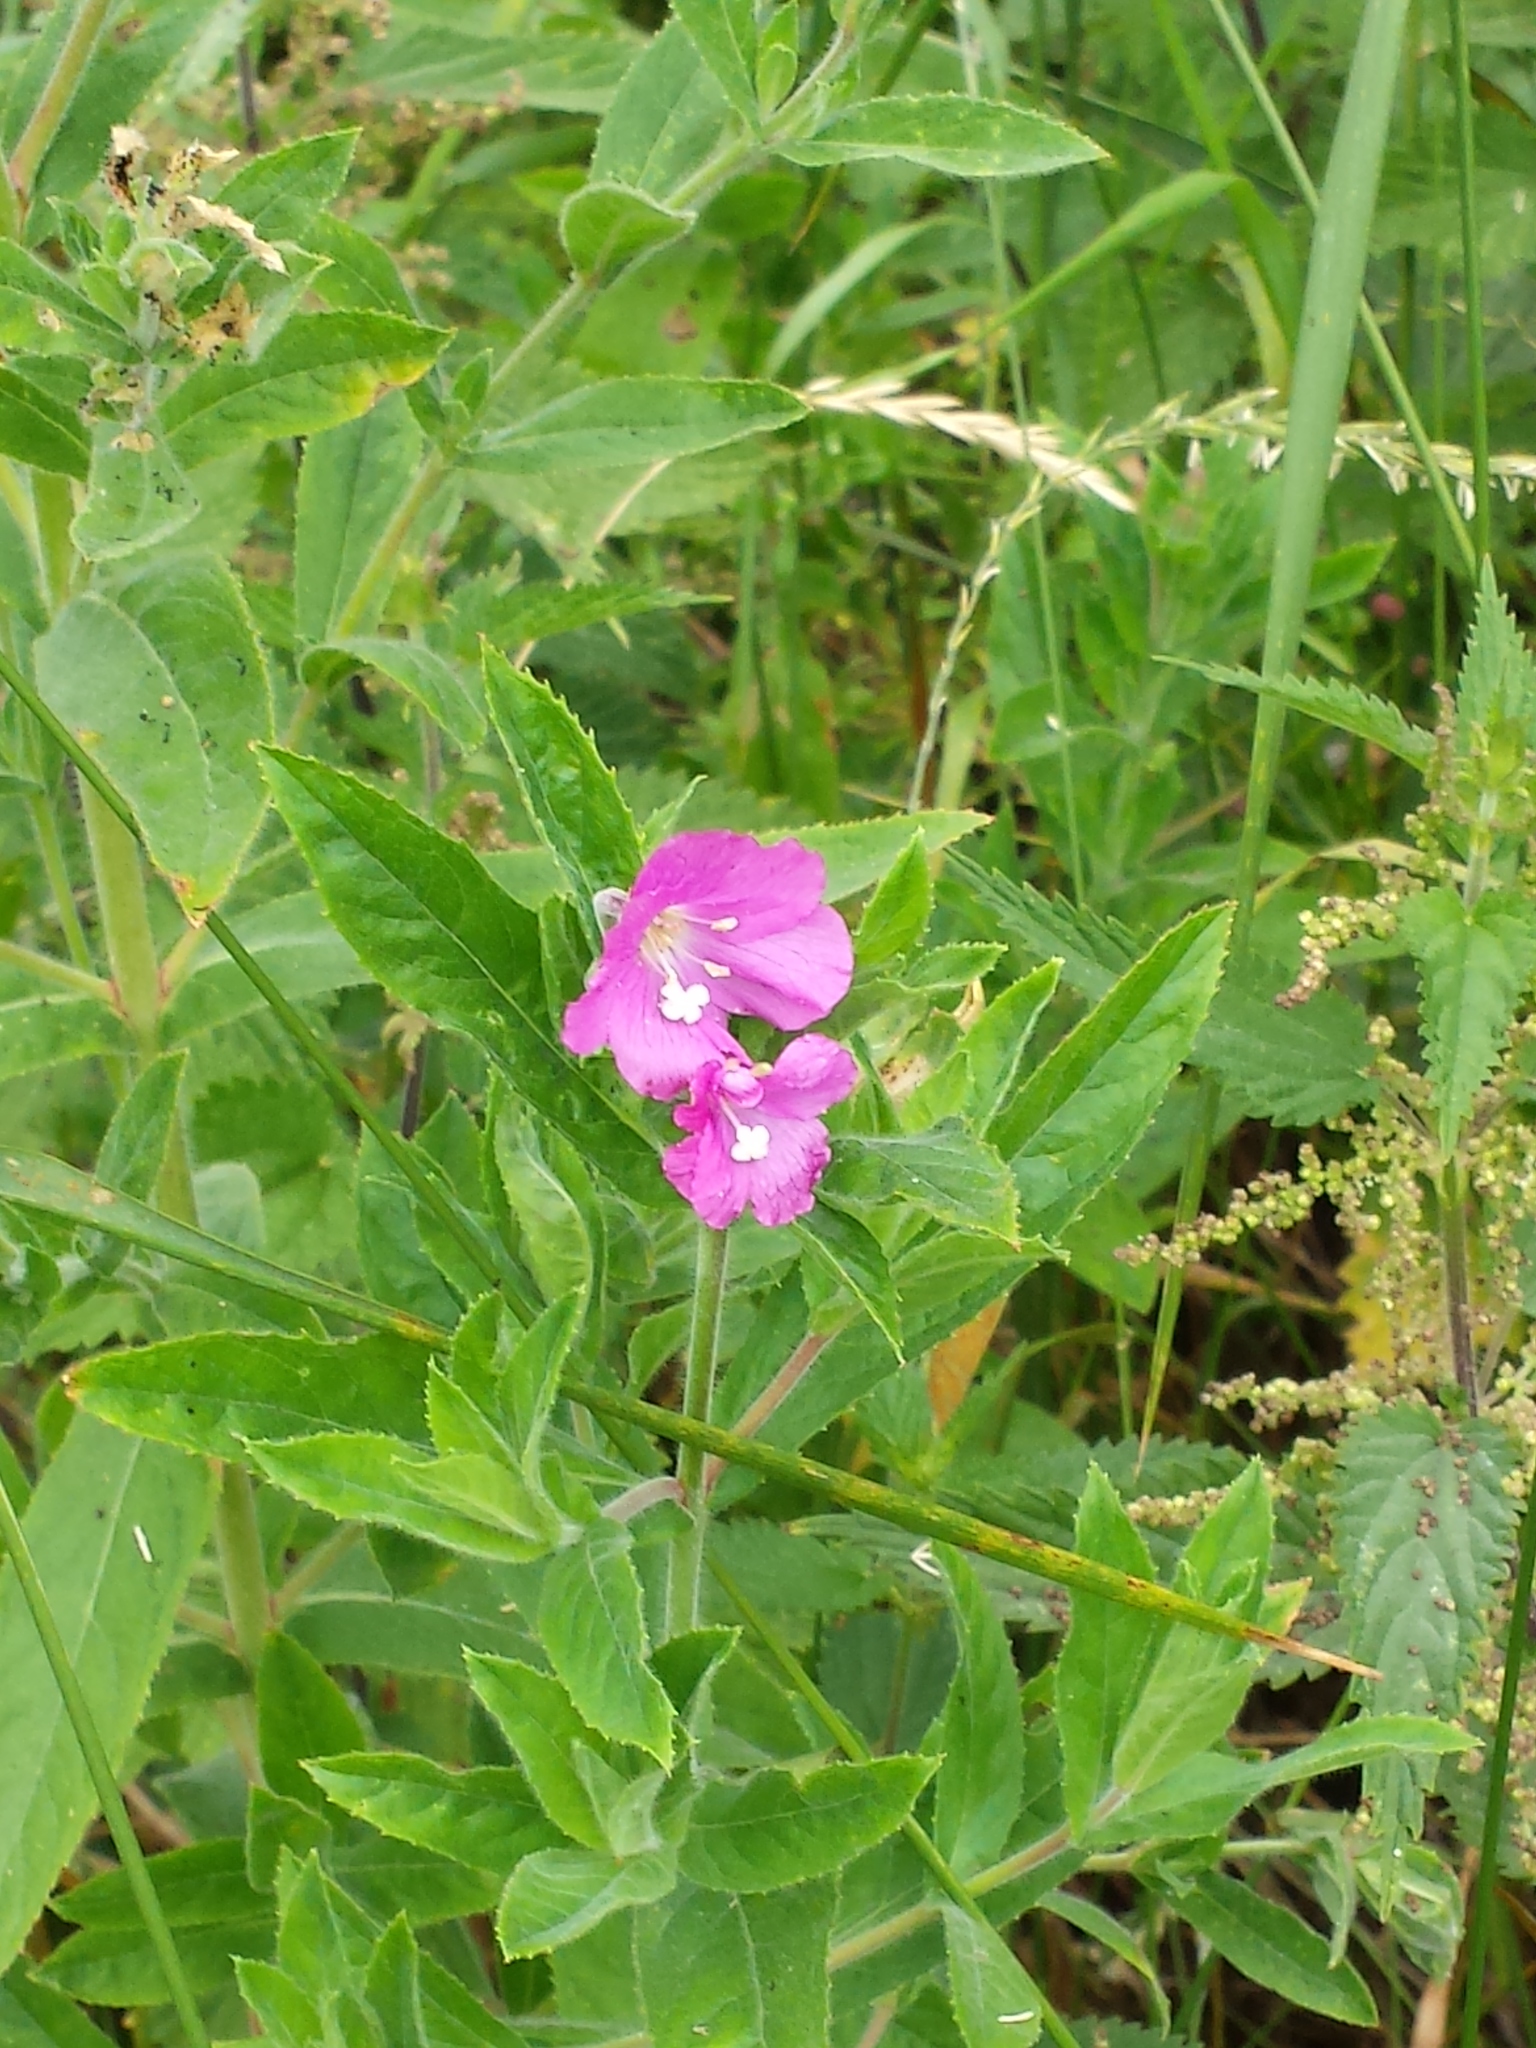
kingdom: Plantae
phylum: Tracheophyta
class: Magnoliopsida
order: Myrtales
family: Onagraceae
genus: Epilobium
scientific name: Epilobium hirsutum
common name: Great willowherb
